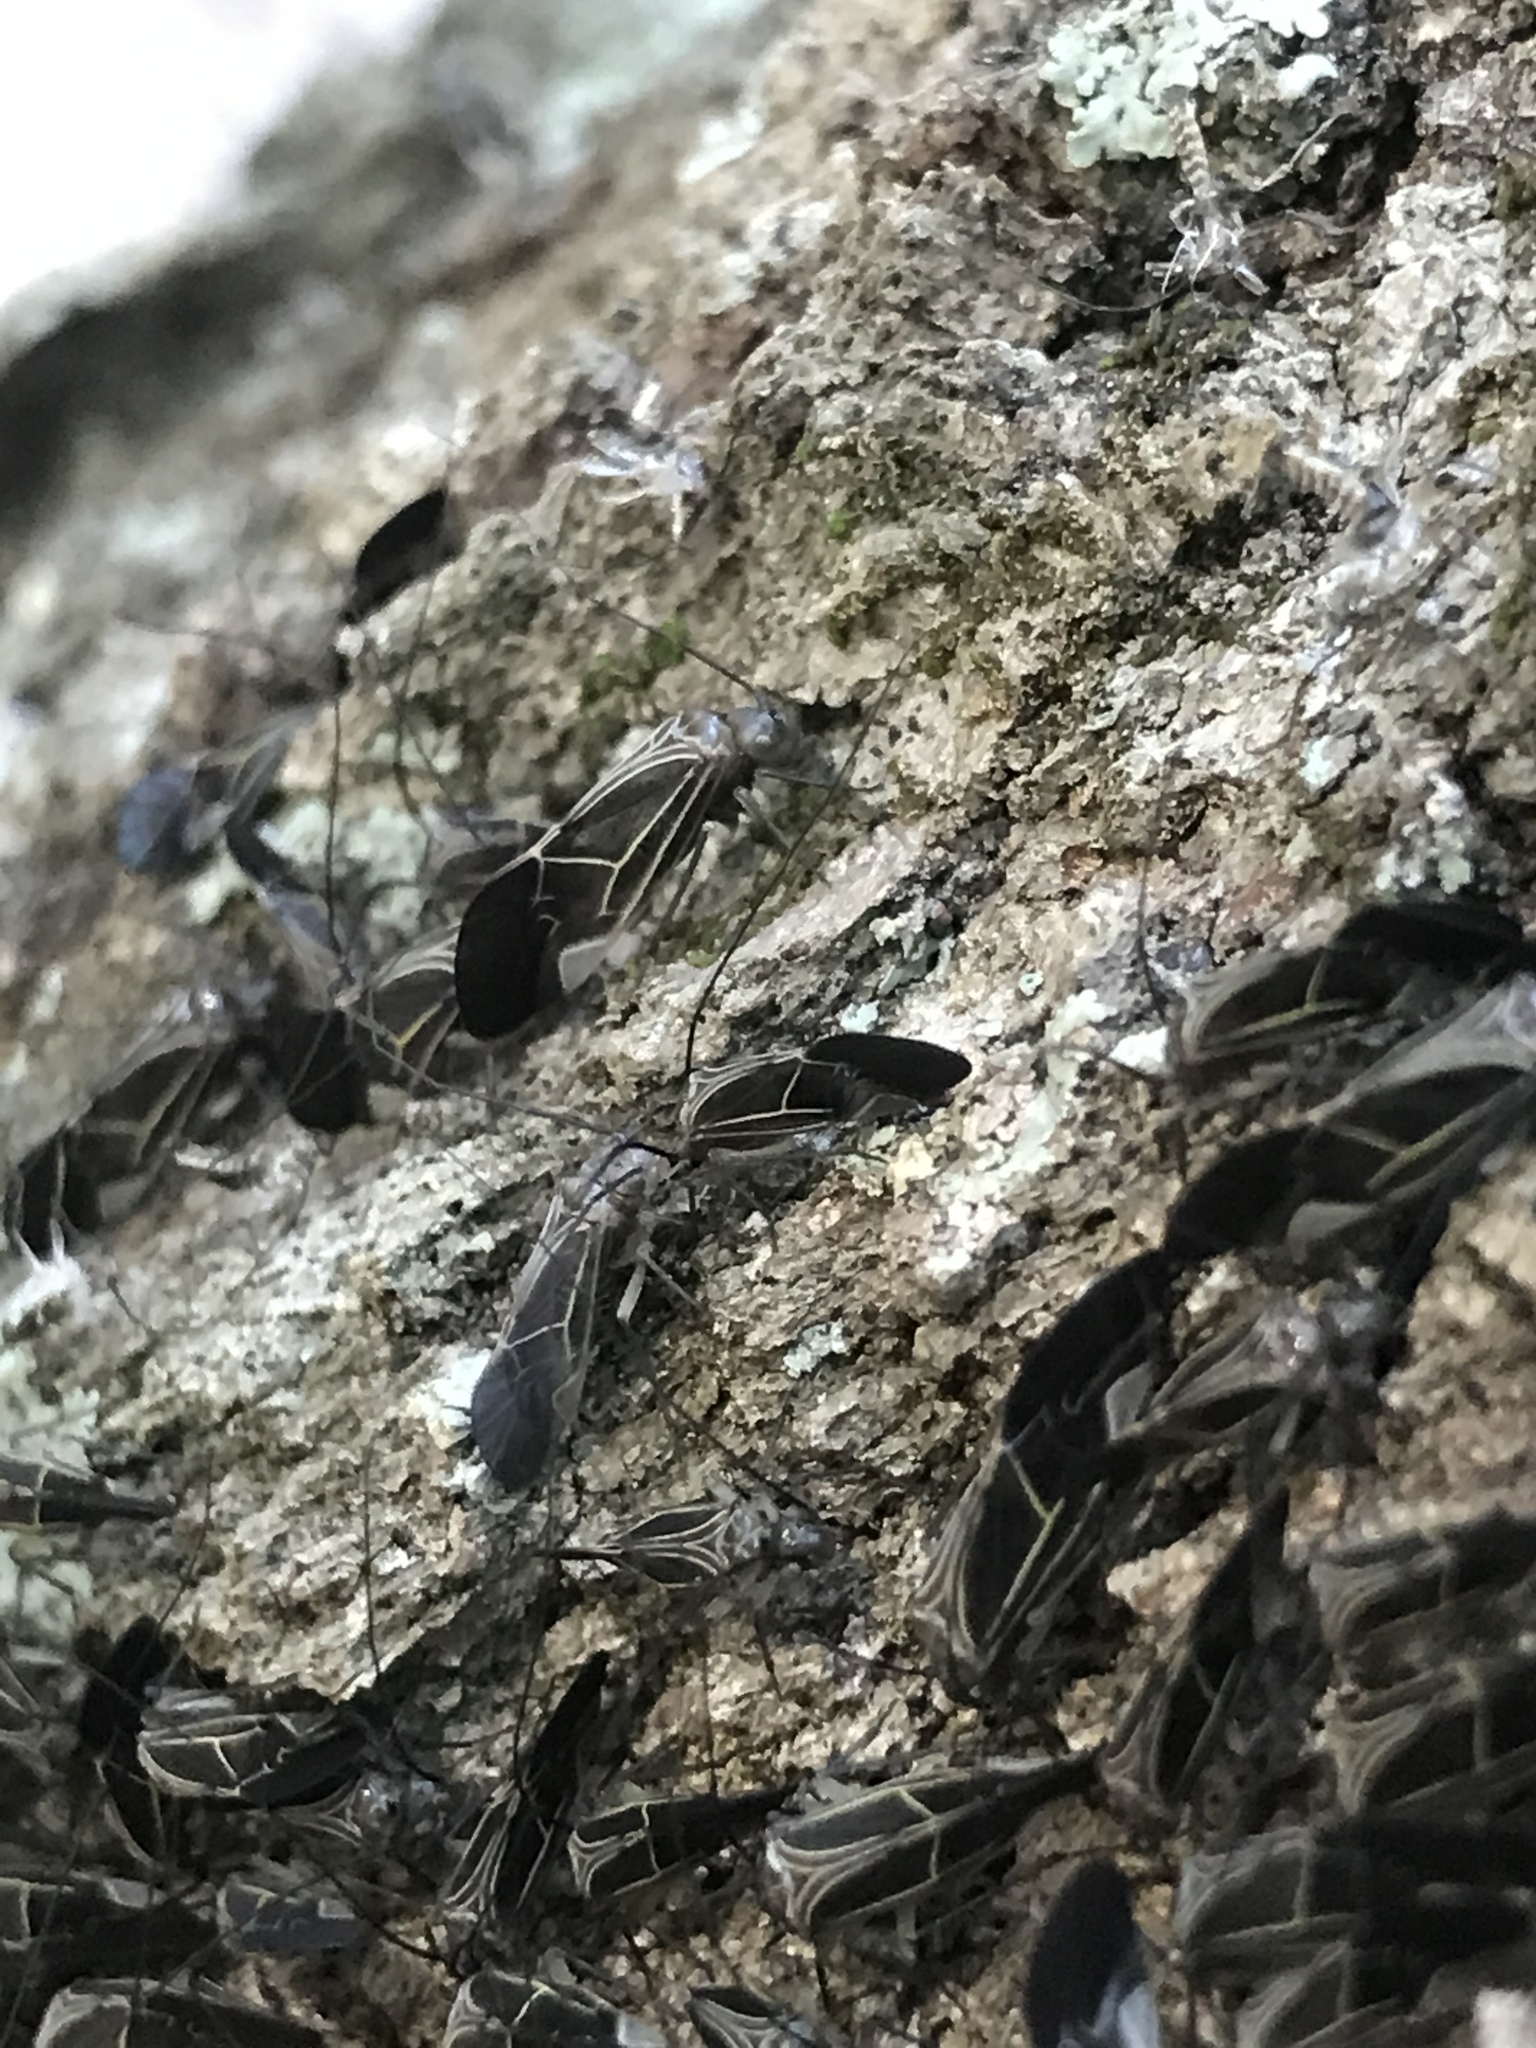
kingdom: Animalia
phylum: Arthropoda
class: Insecta
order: Psocodea
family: Psocidae
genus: Cerastipsocus
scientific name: Cerastipsocus venosus
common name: Tree cattle
